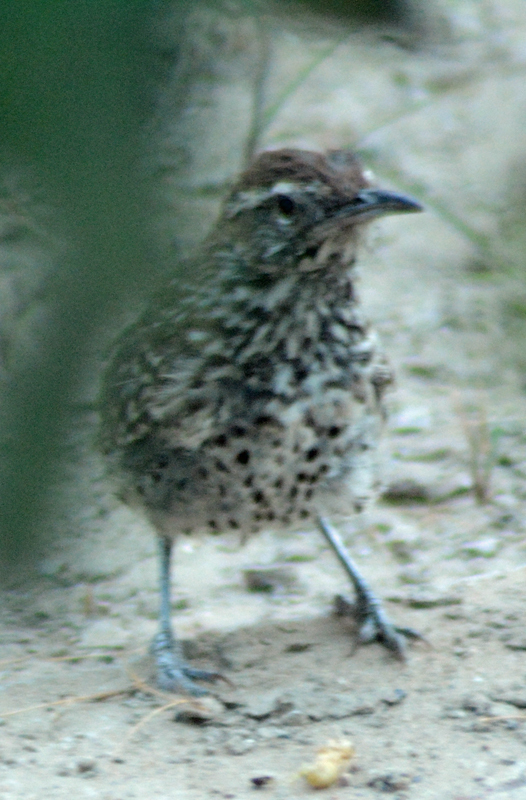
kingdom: Animalia
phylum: Chordata
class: Aves
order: Passeriformes
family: Troglodytidae
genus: Campylorhynchus
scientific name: Campylorhynchus brunneicapillus
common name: Cactus wren
